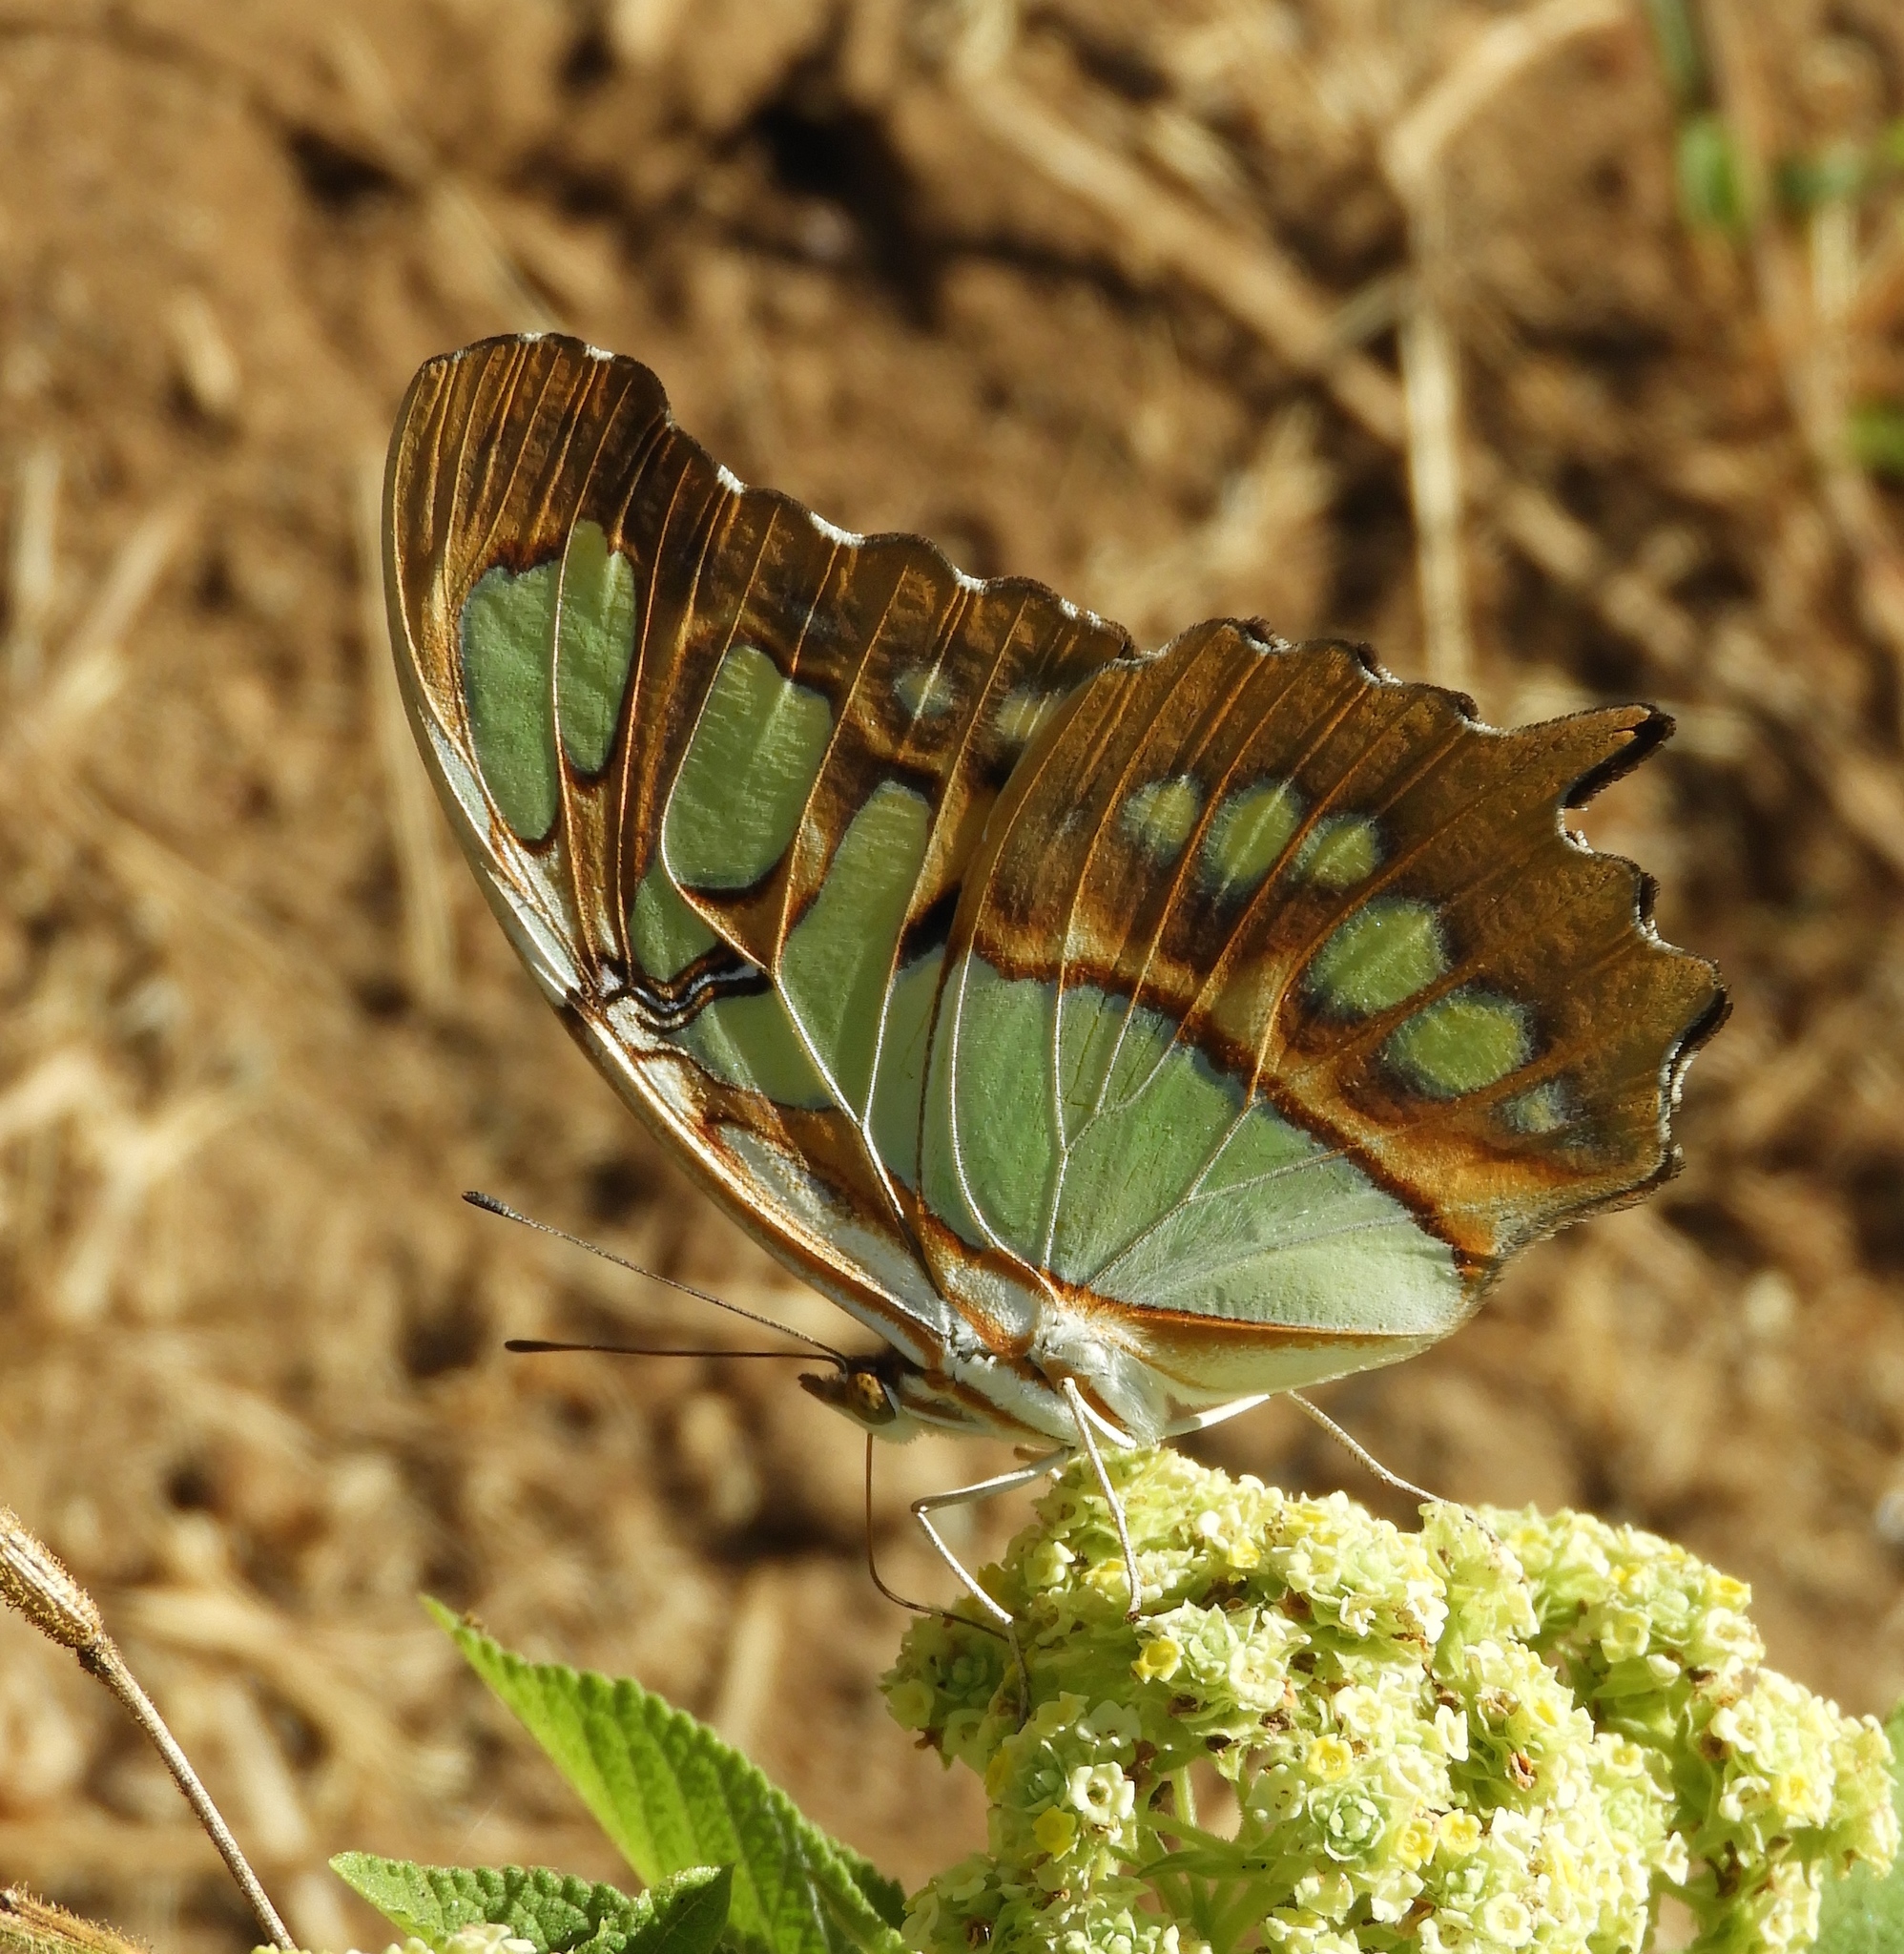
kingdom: Animalia
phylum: Arthropoda
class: Insecta
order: Lepidoptera
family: Nymphalidae
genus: Siproeta
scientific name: Siproeta stelenes
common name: Malachite
